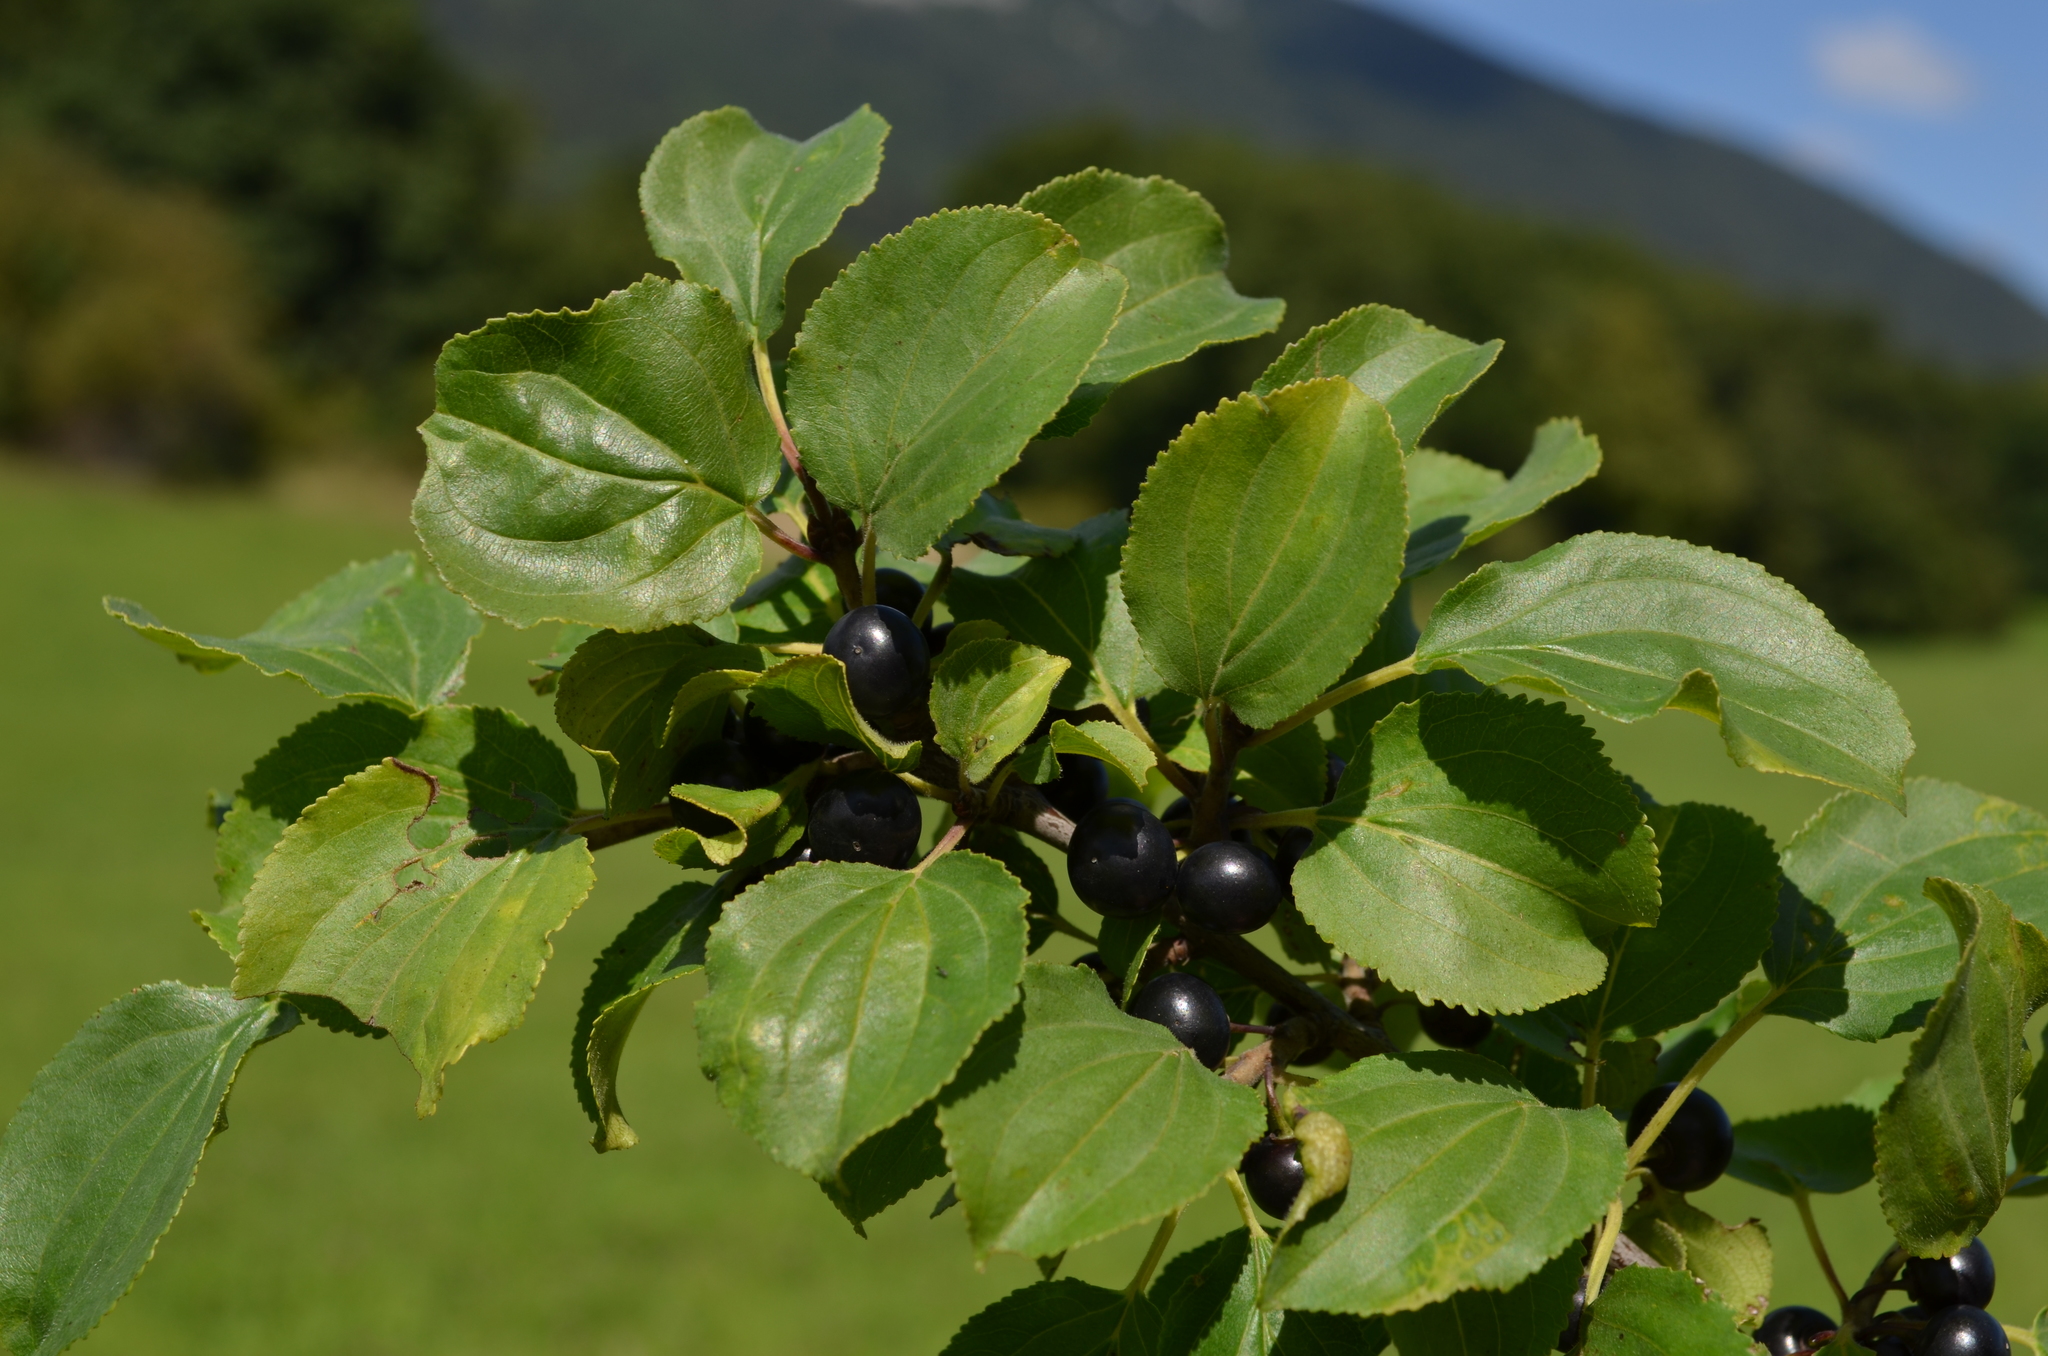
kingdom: Plantae
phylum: Tracheophyta
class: Magnoliopsida
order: Rosales
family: Rhamnaceae
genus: Rhamnus
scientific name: Rhamnus cathartica
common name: Common buckthorn
